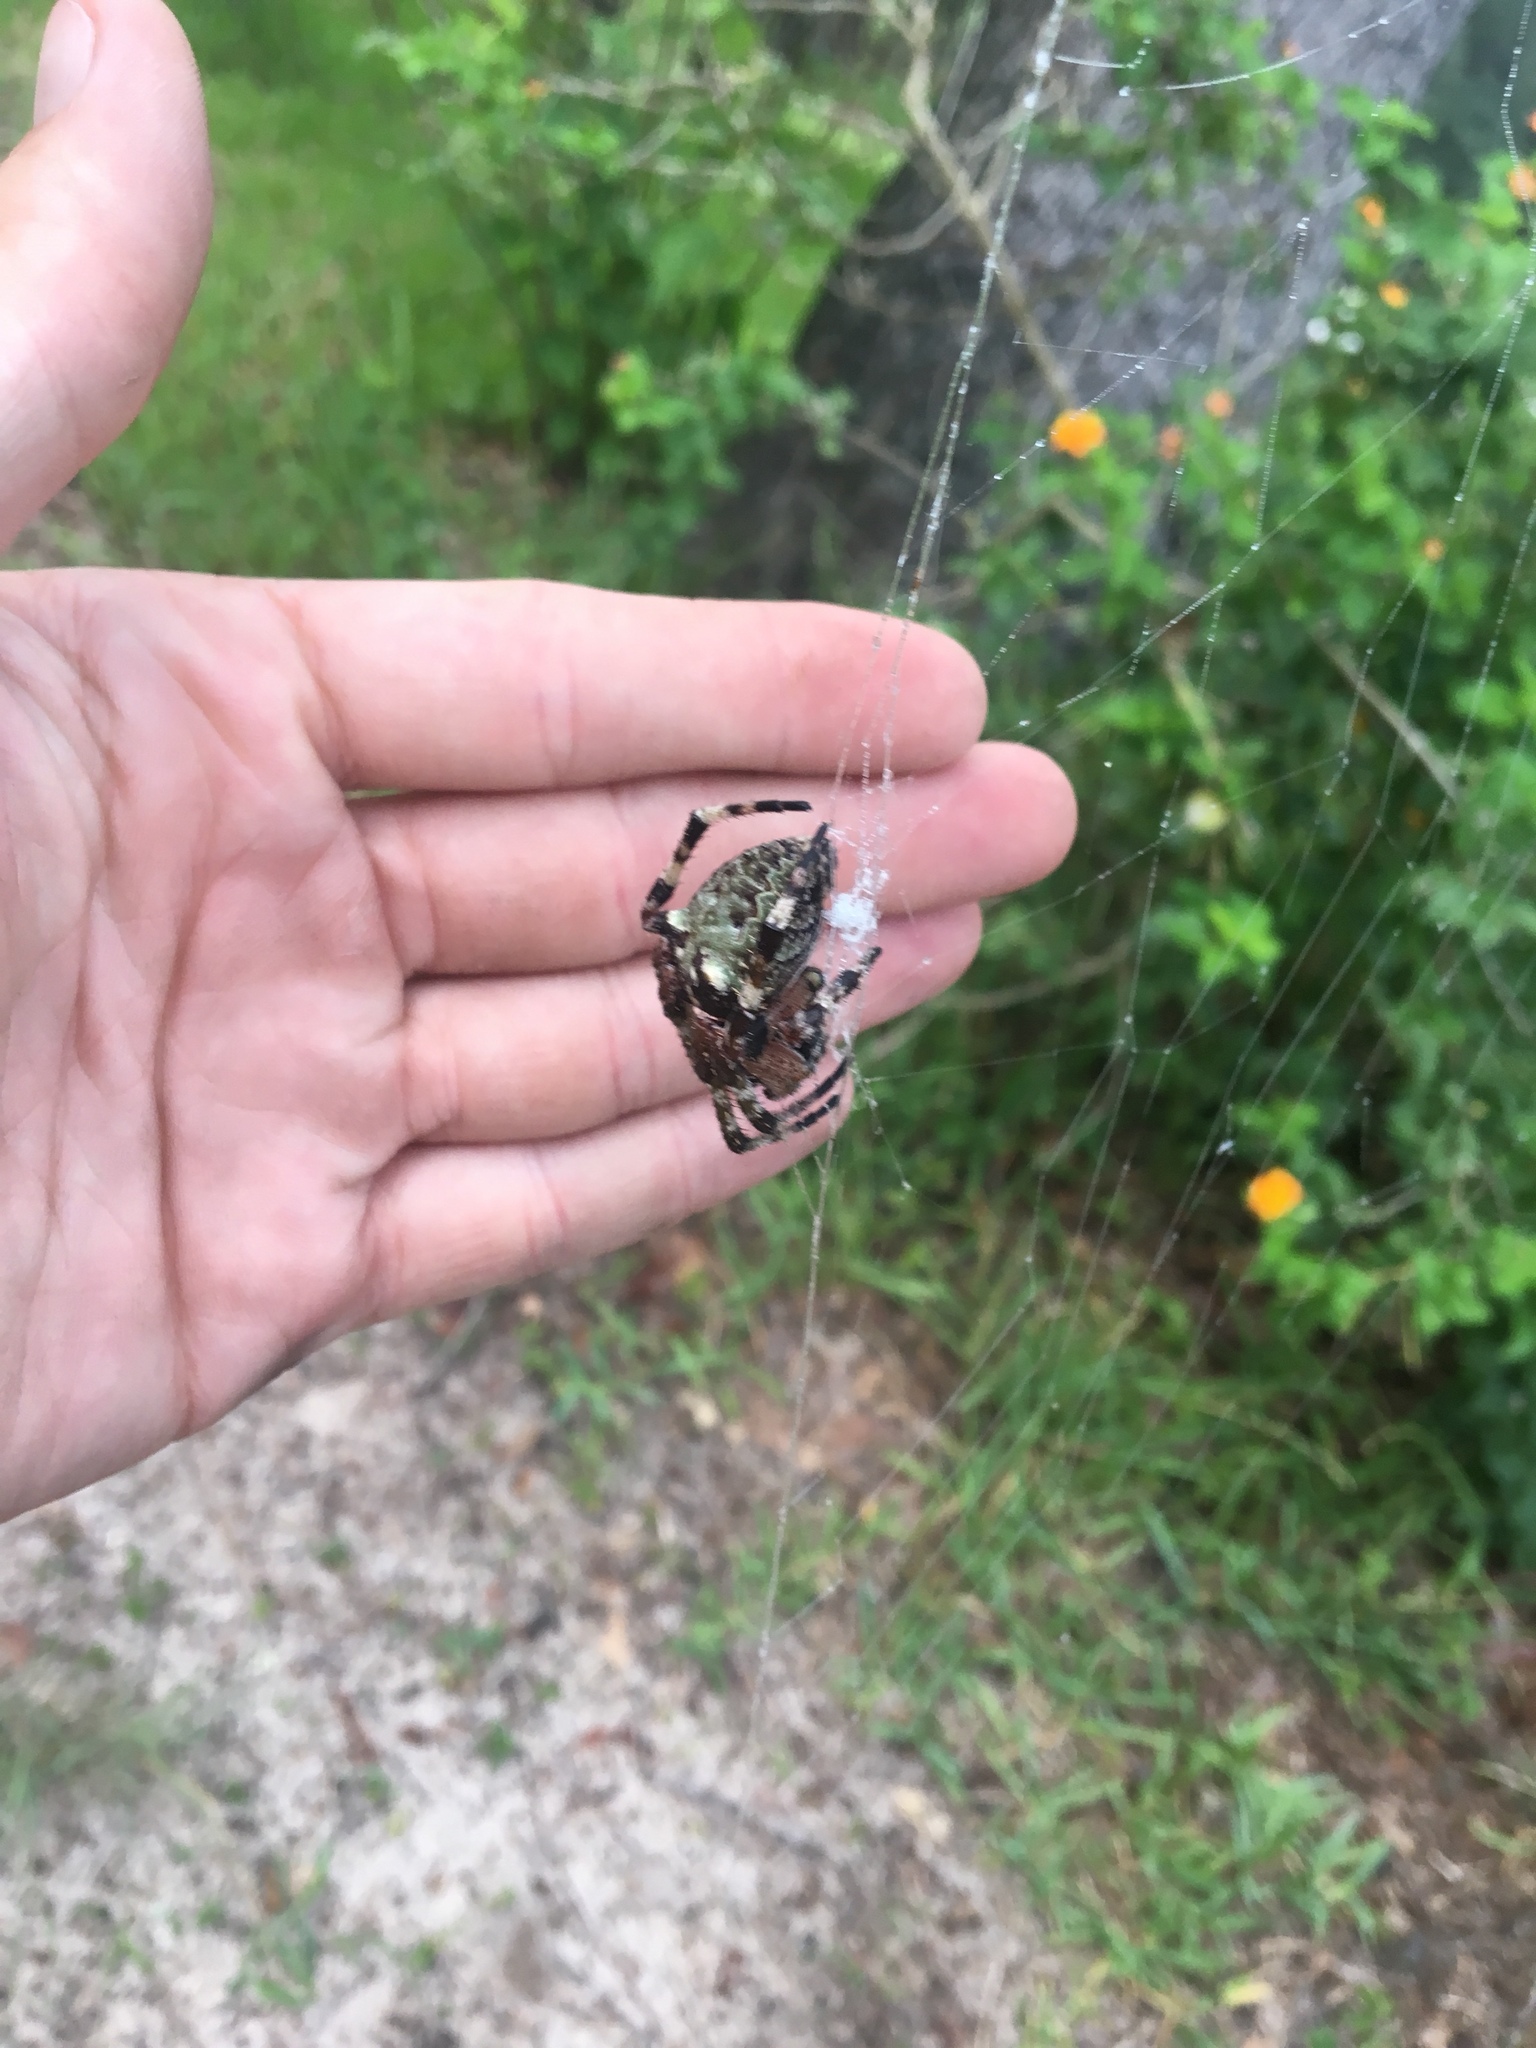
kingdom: Animalia
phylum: Arthropoda
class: Arachnida
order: Araneae
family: Araneidae
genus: Araneus
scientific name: Araneus bicentenarius
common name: Giant lichen orbweaver
